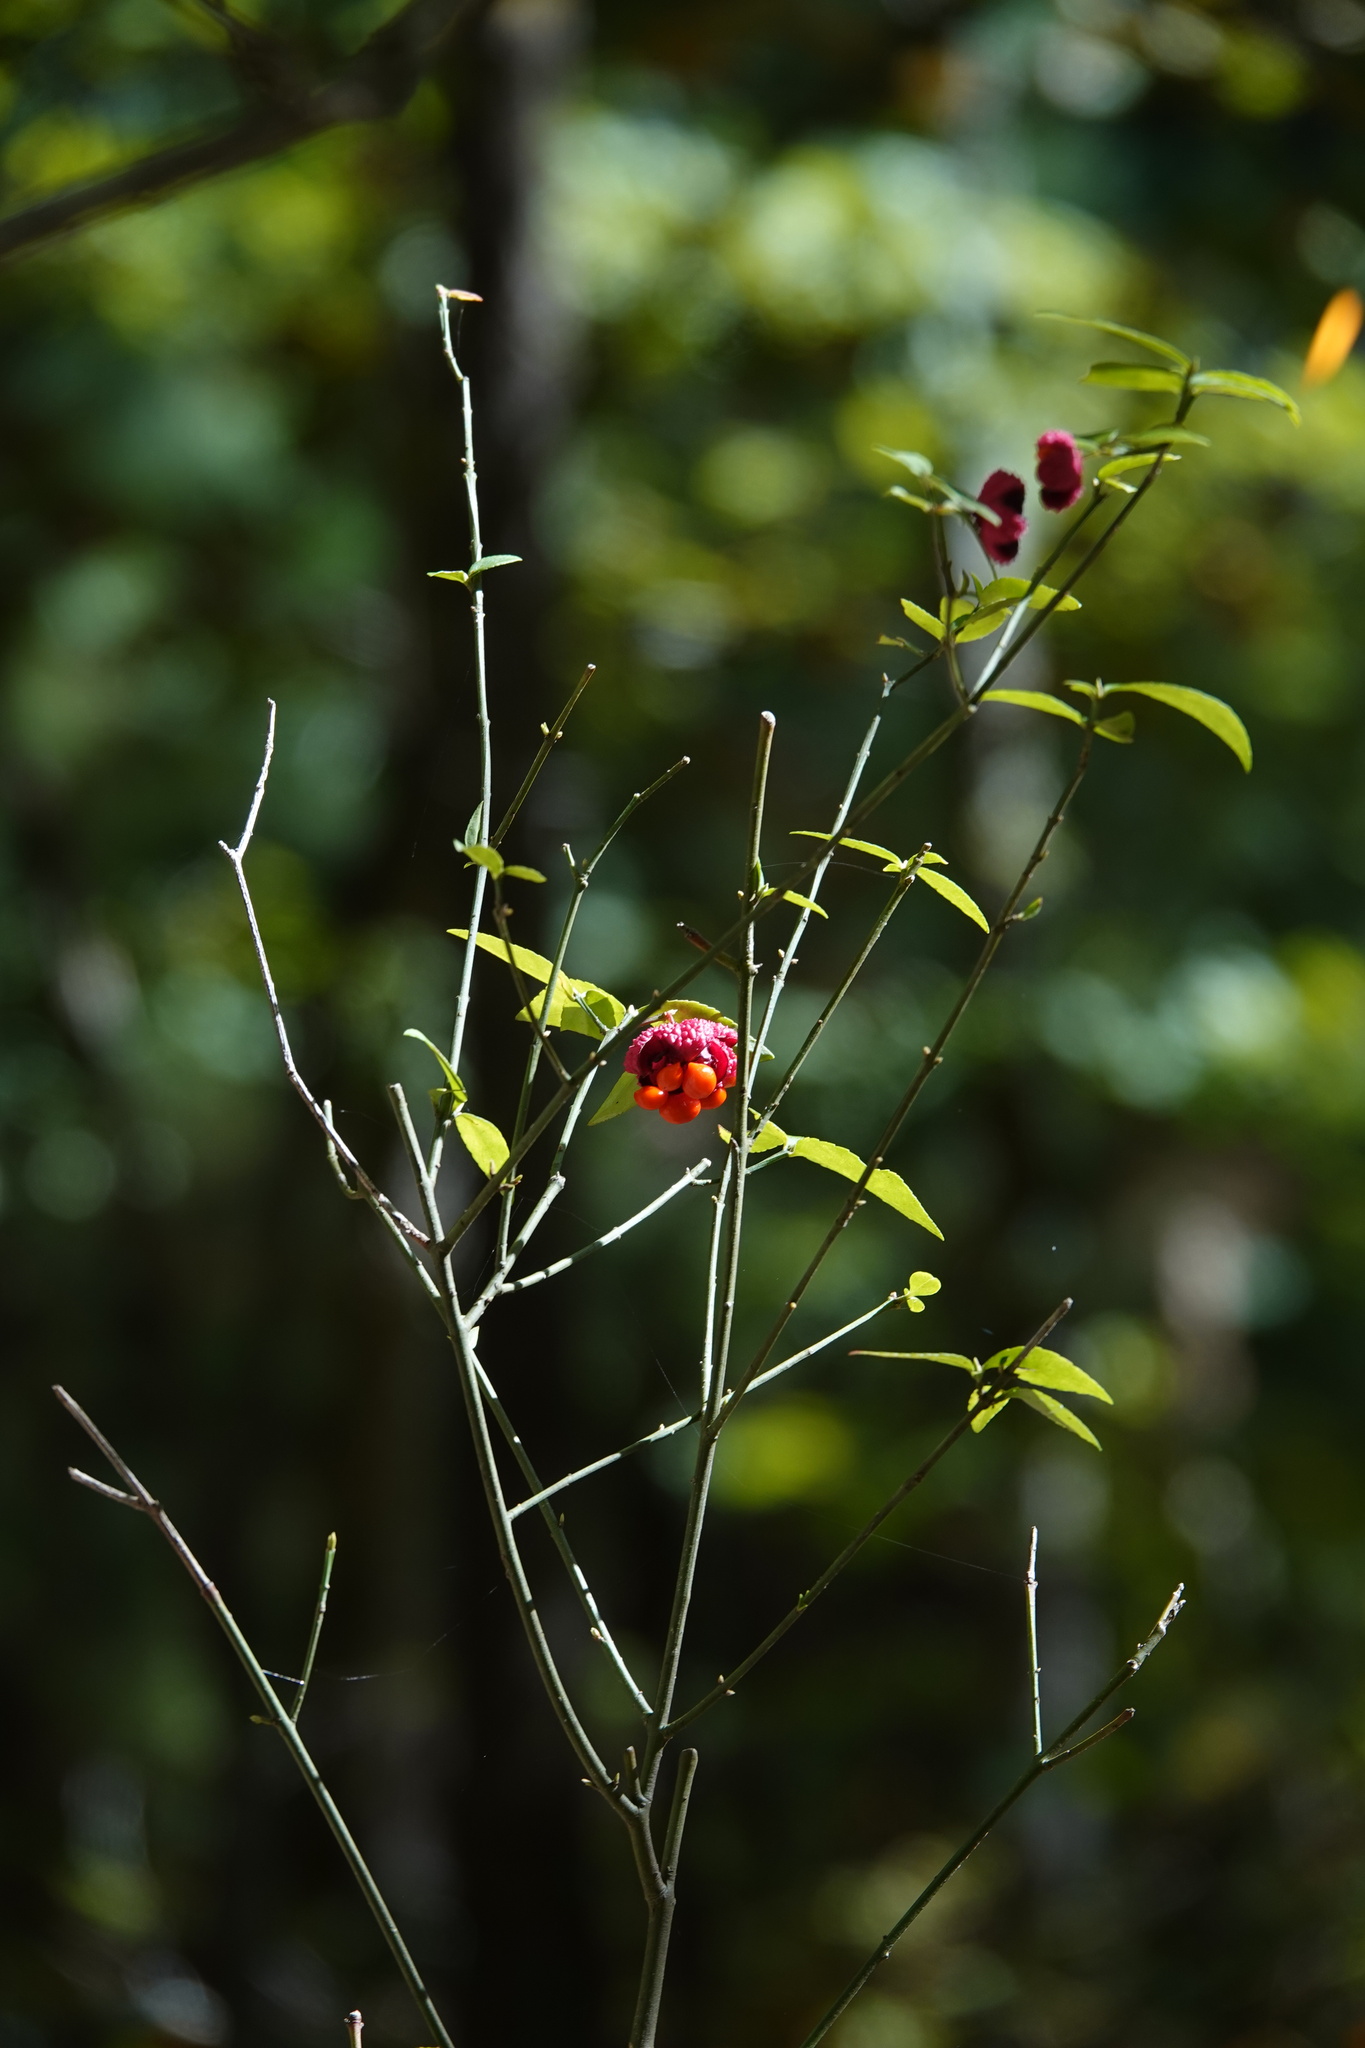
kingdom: Plantae
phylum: Tracheophyta
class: Magnoliopsida
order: Celastrales
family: Celastraceae
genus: Euonymus
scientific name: Euonymus americanus
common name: Bursting-heart
